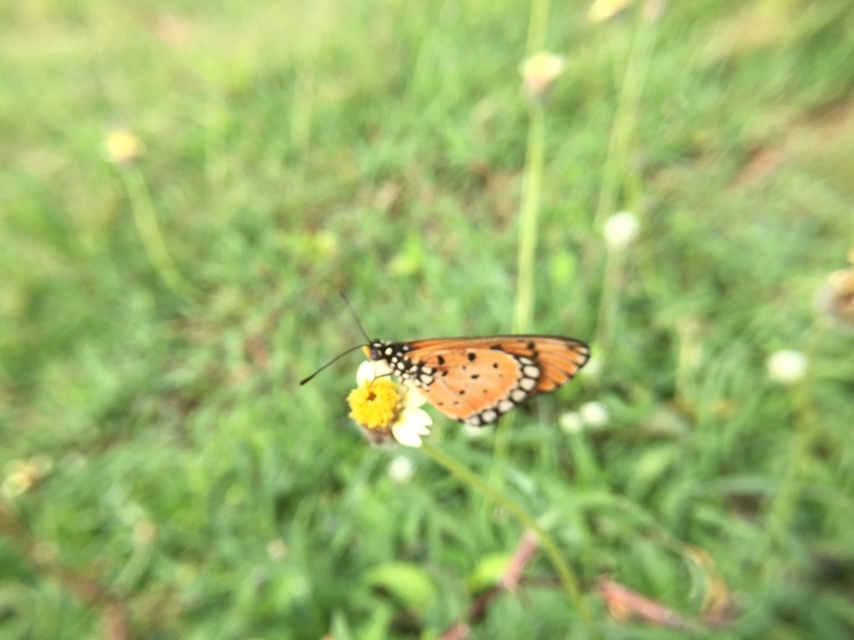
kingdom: Animalia
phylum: Arthropoda
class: Insecta
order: Lepidoptera
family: Nymphalidae
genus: Acraea
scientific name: Acraea terpsicore
